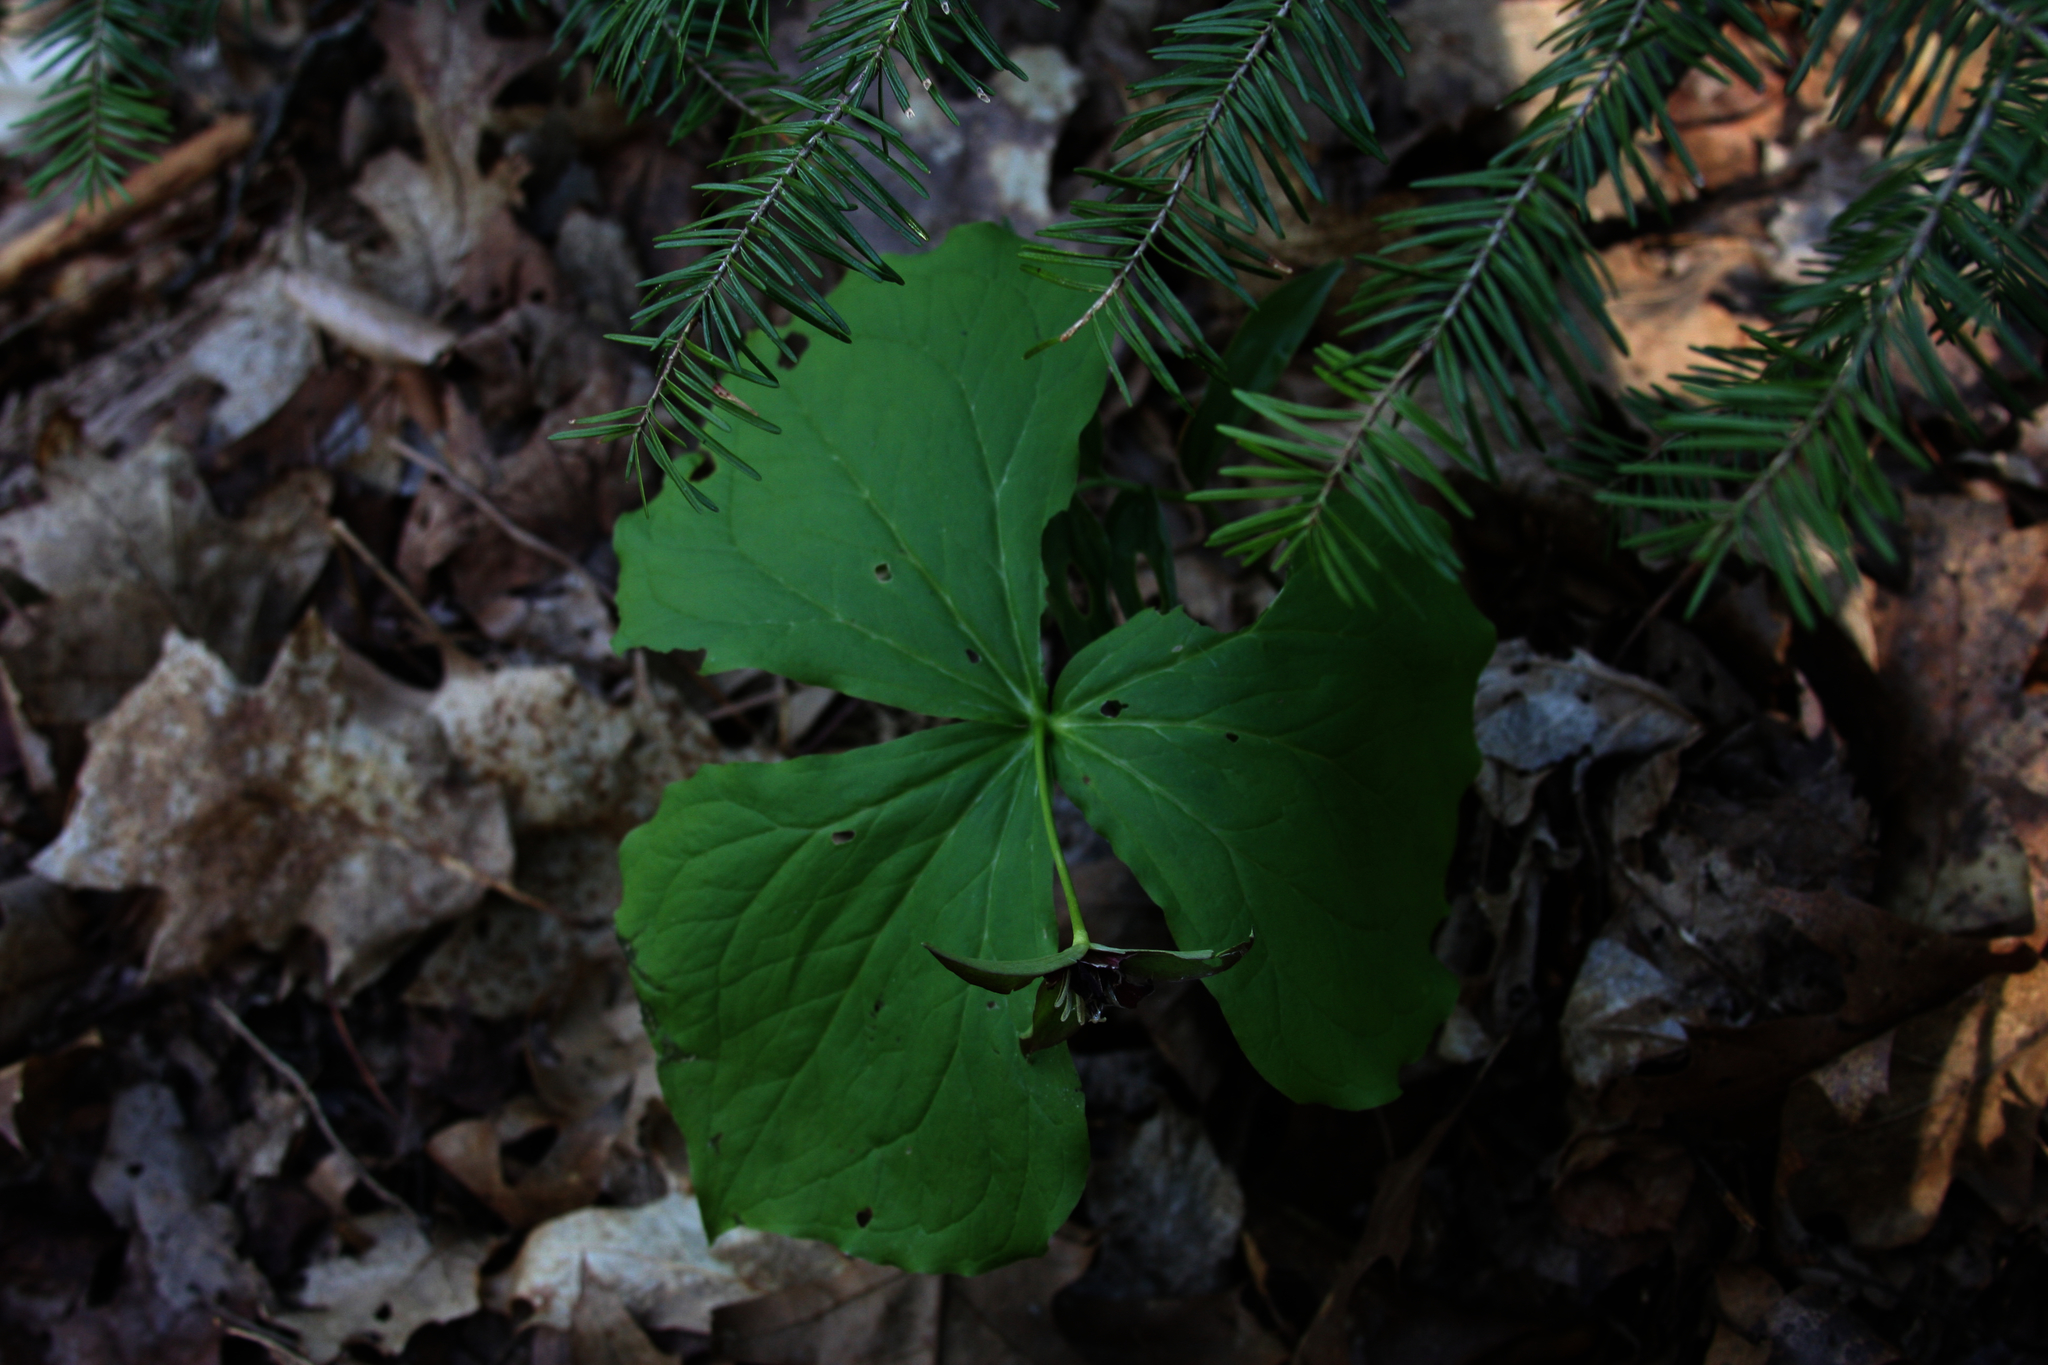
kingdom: Plantae
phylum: Tracheophyta
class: Liliopsida
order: Liliales
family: Melanthiaceae
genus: Trillium
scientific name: Trillium erectum
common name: Purple trillium
